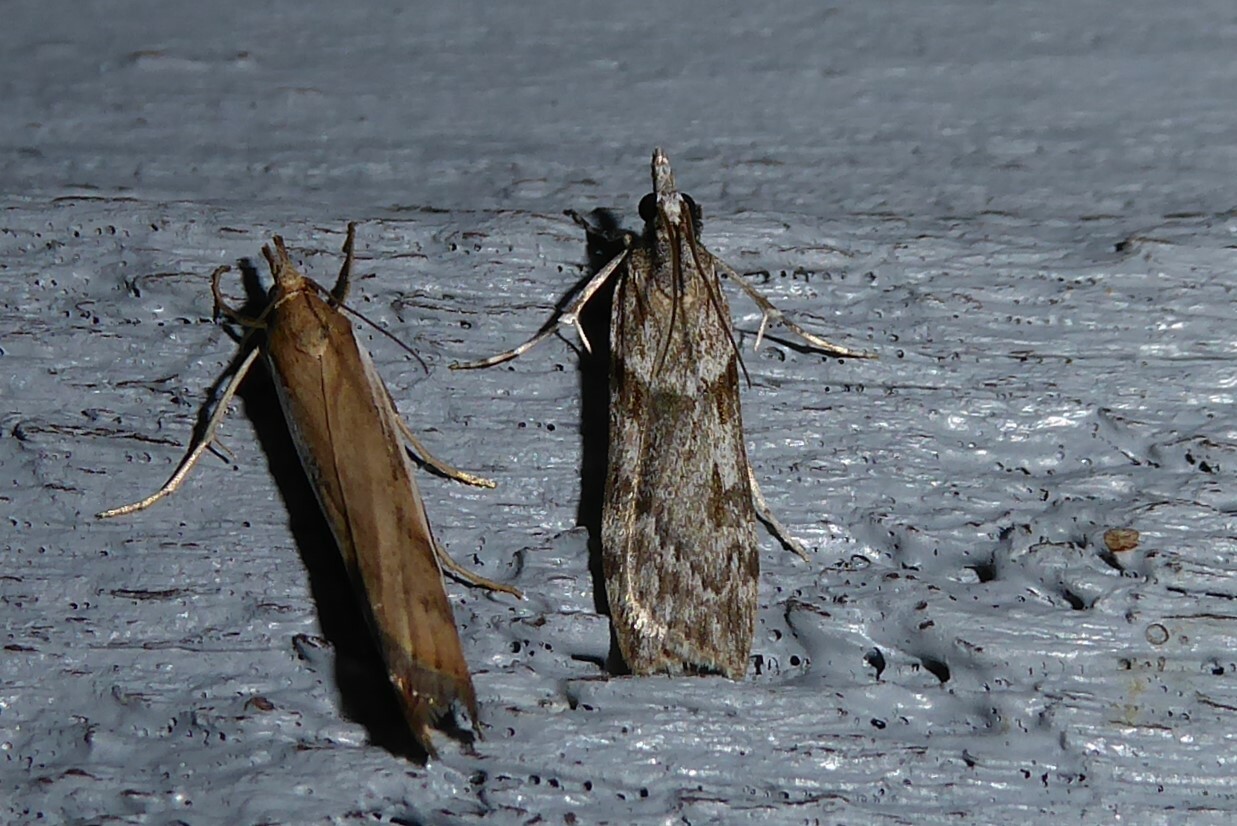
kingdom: Animalia
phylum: Arthropoda
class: Insecta
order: Lepidoptera
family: Crambidae
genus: Scoparia
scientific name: Scoparia halopis
